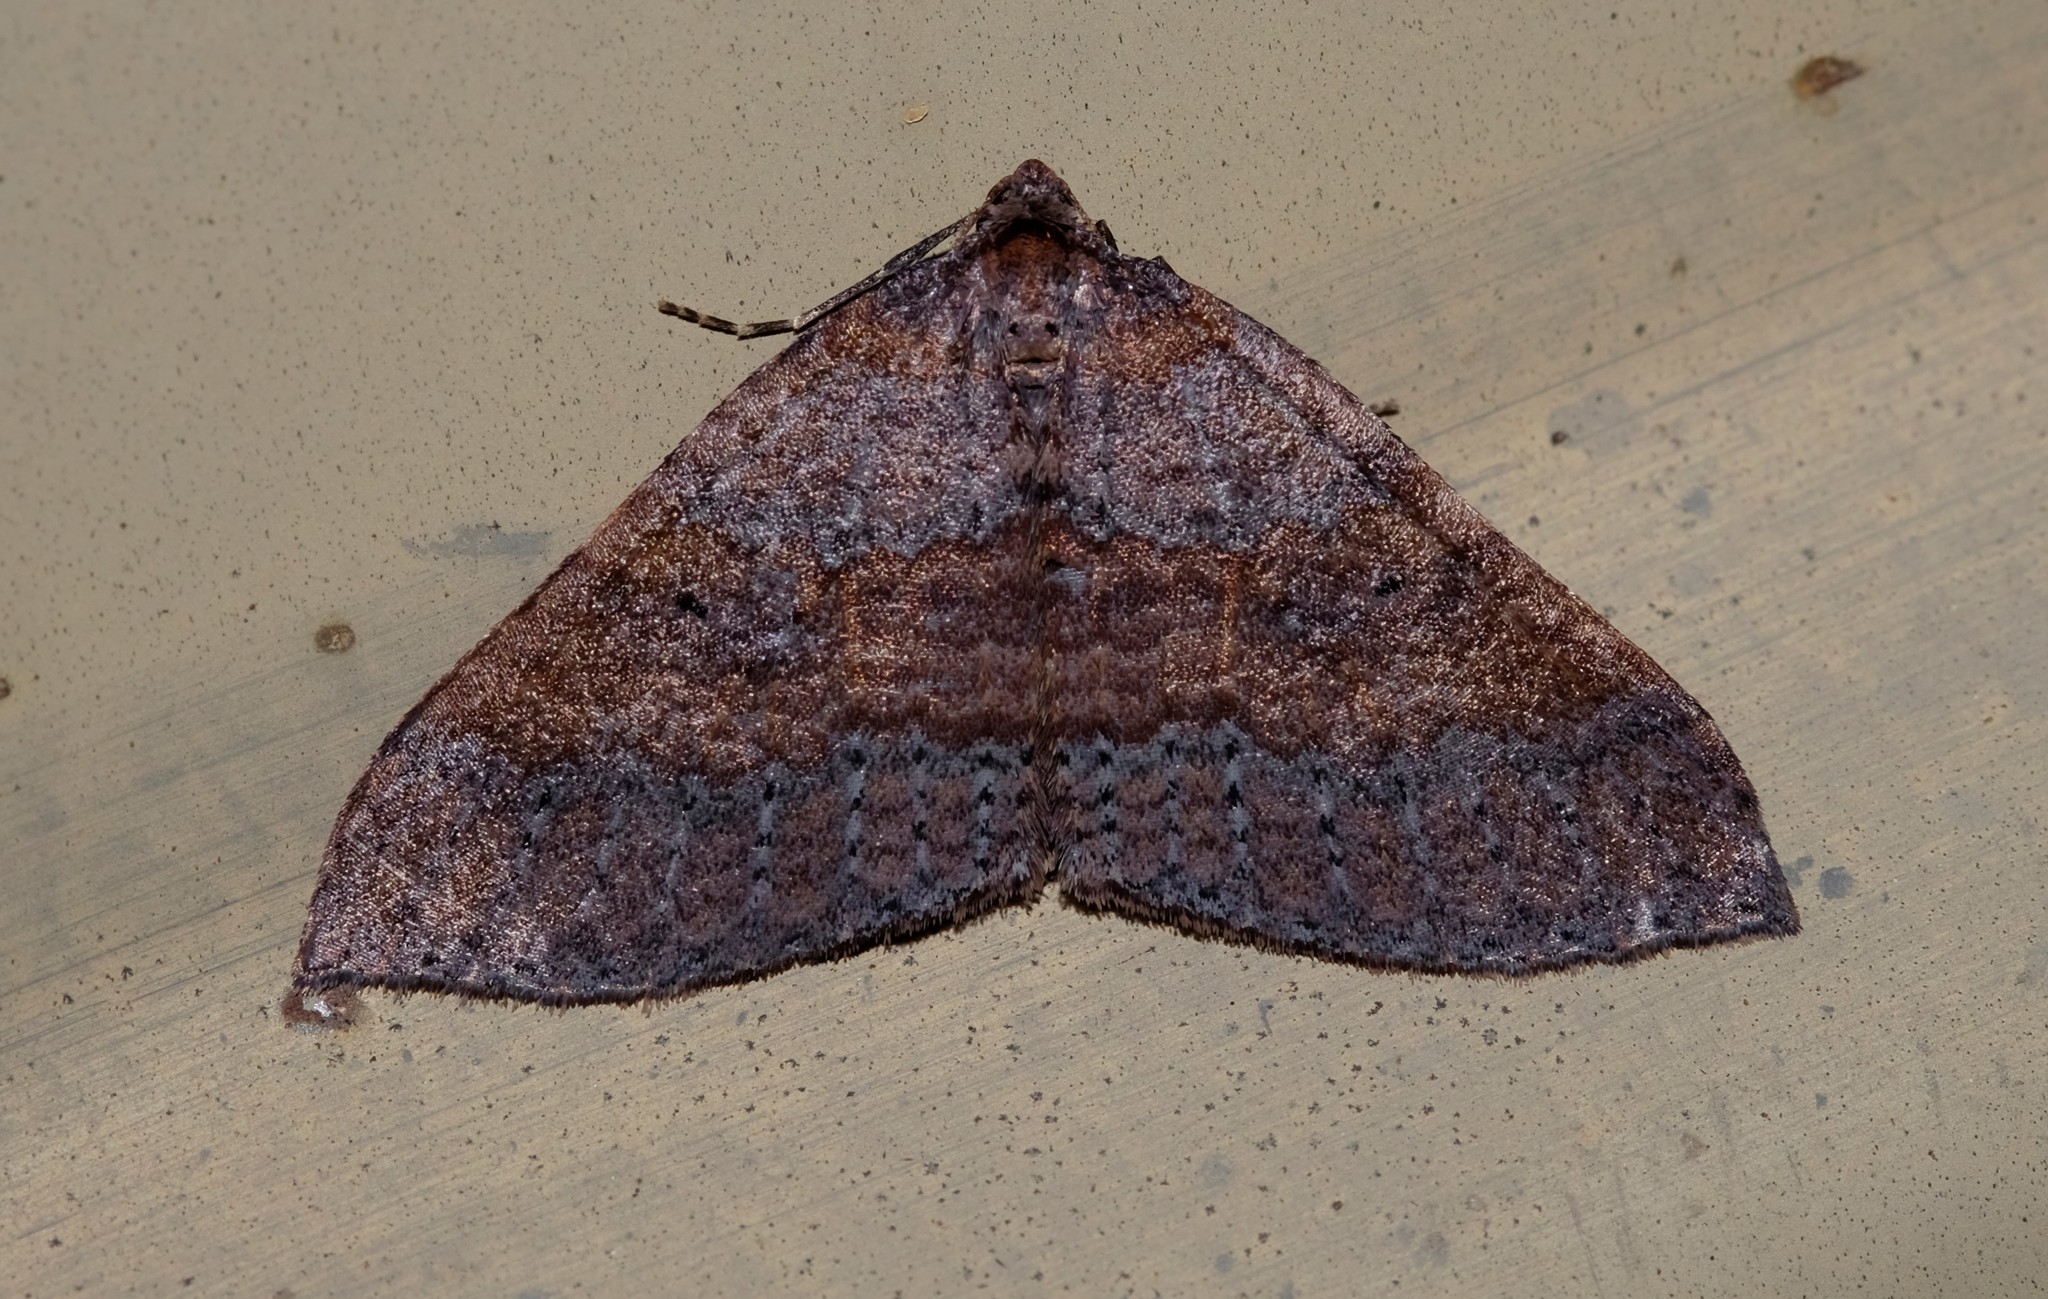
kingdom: Animalia
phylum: Arthropoda
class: Insecta
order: Lepidoptera
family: Geometridae
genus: Larentia
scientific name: Larentia apotoma
